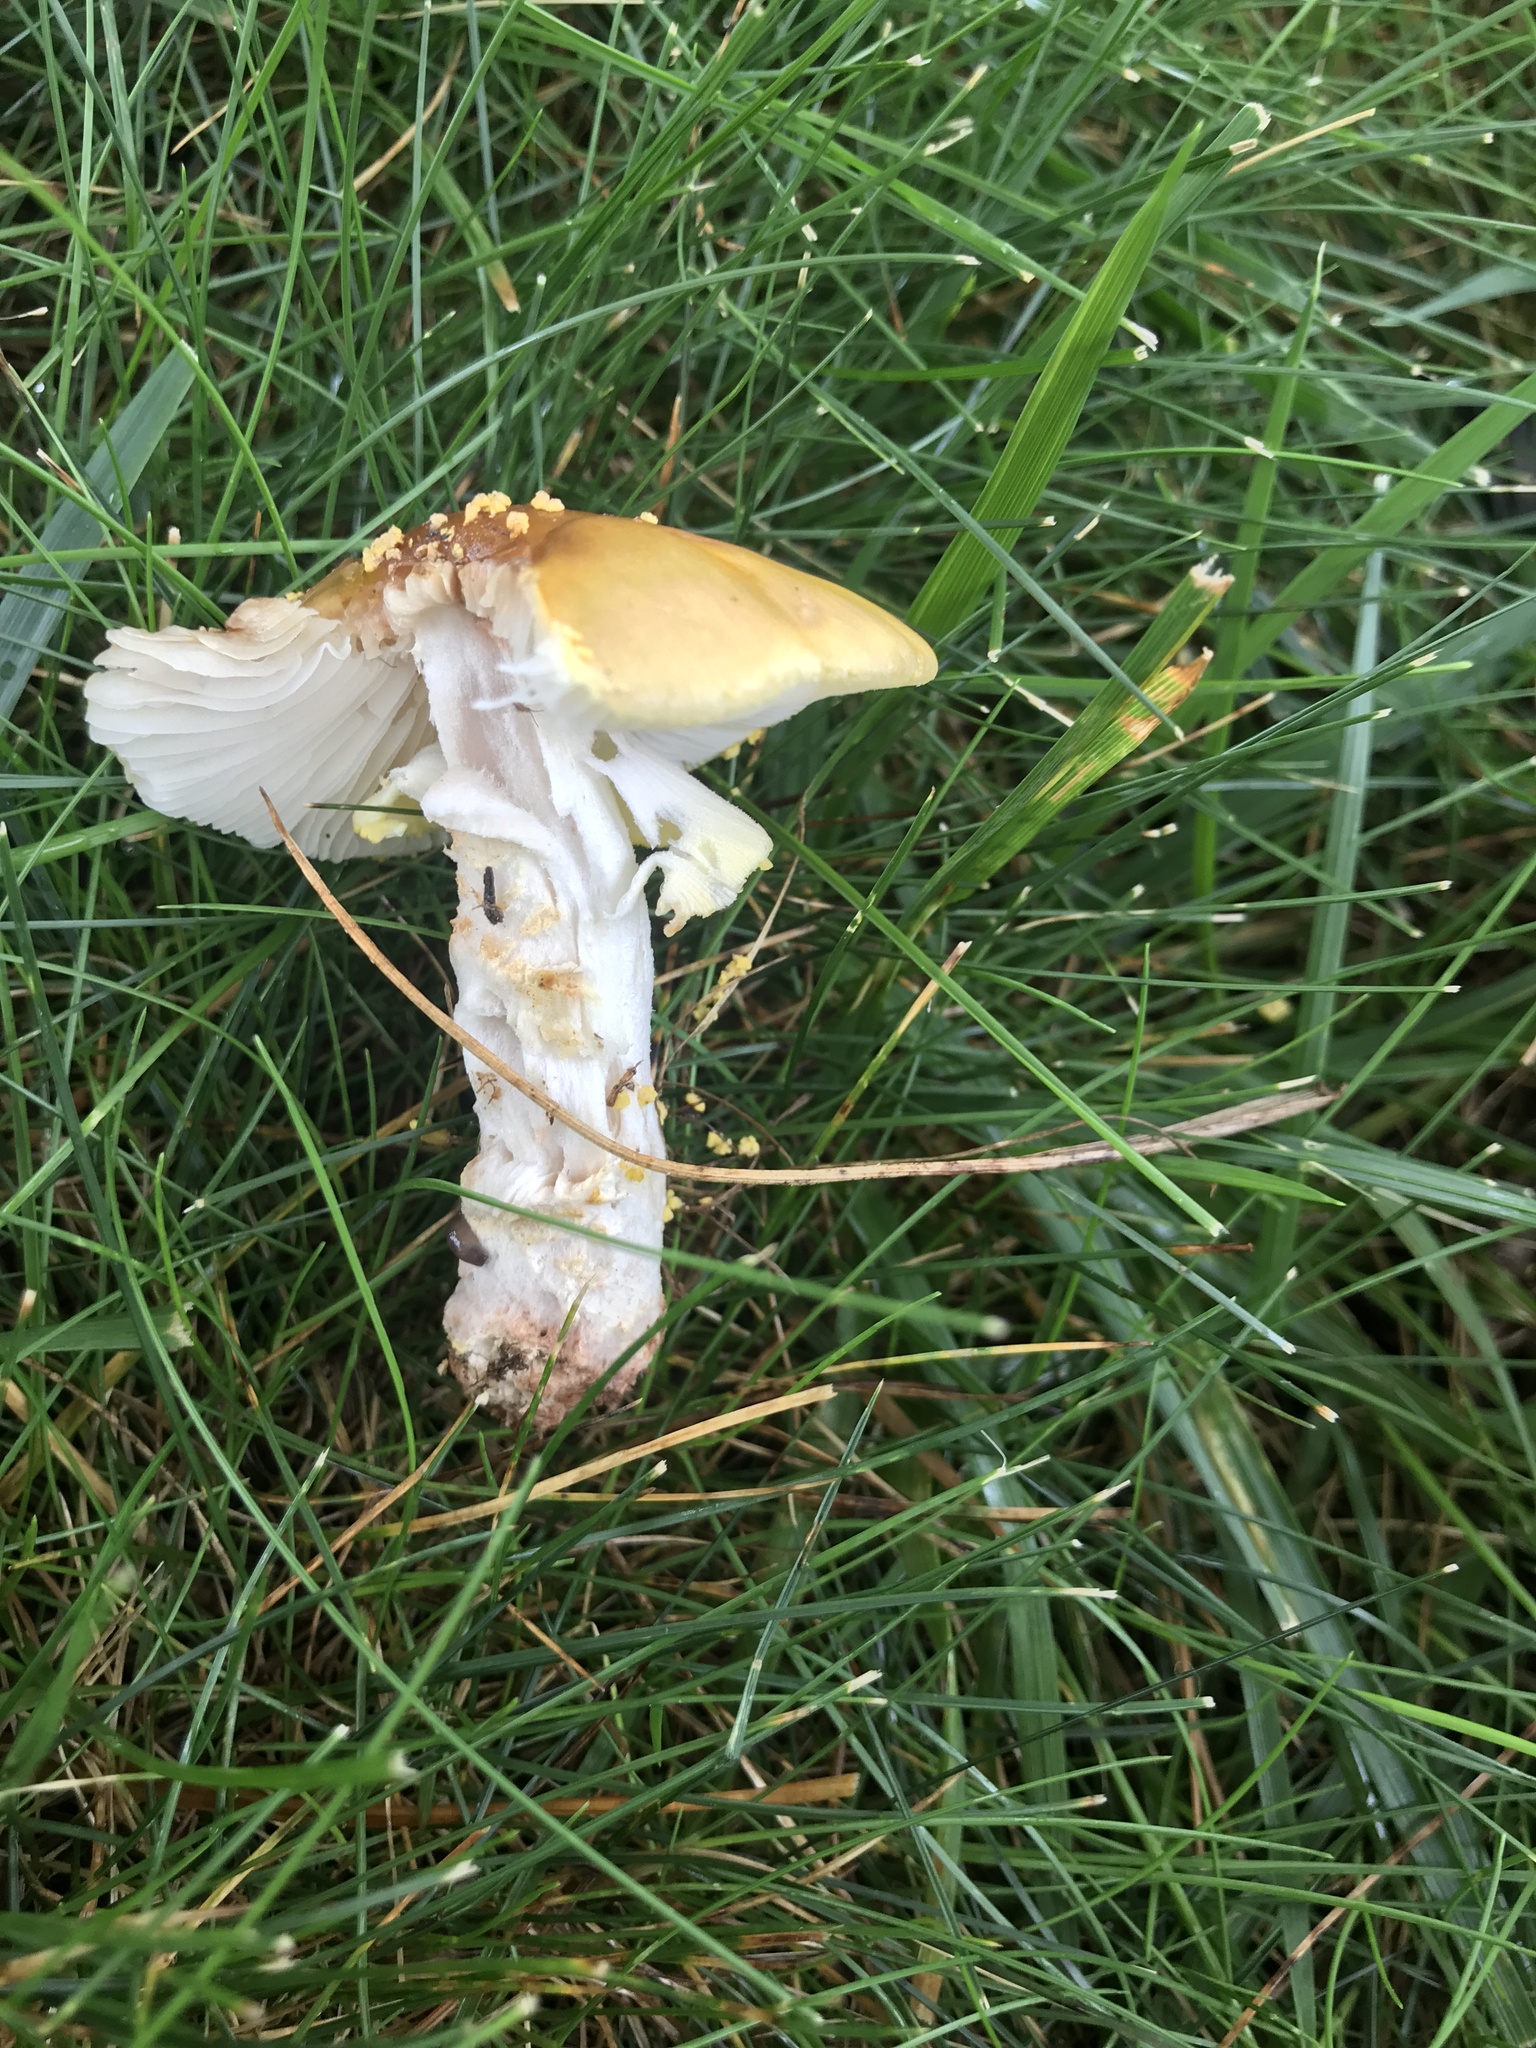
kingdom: Fungi
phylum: Basidiomycota
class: Agaricomycetes
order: Agaricales
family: Amanitaceae
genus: Amanita
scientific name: Amanita flavorubens
